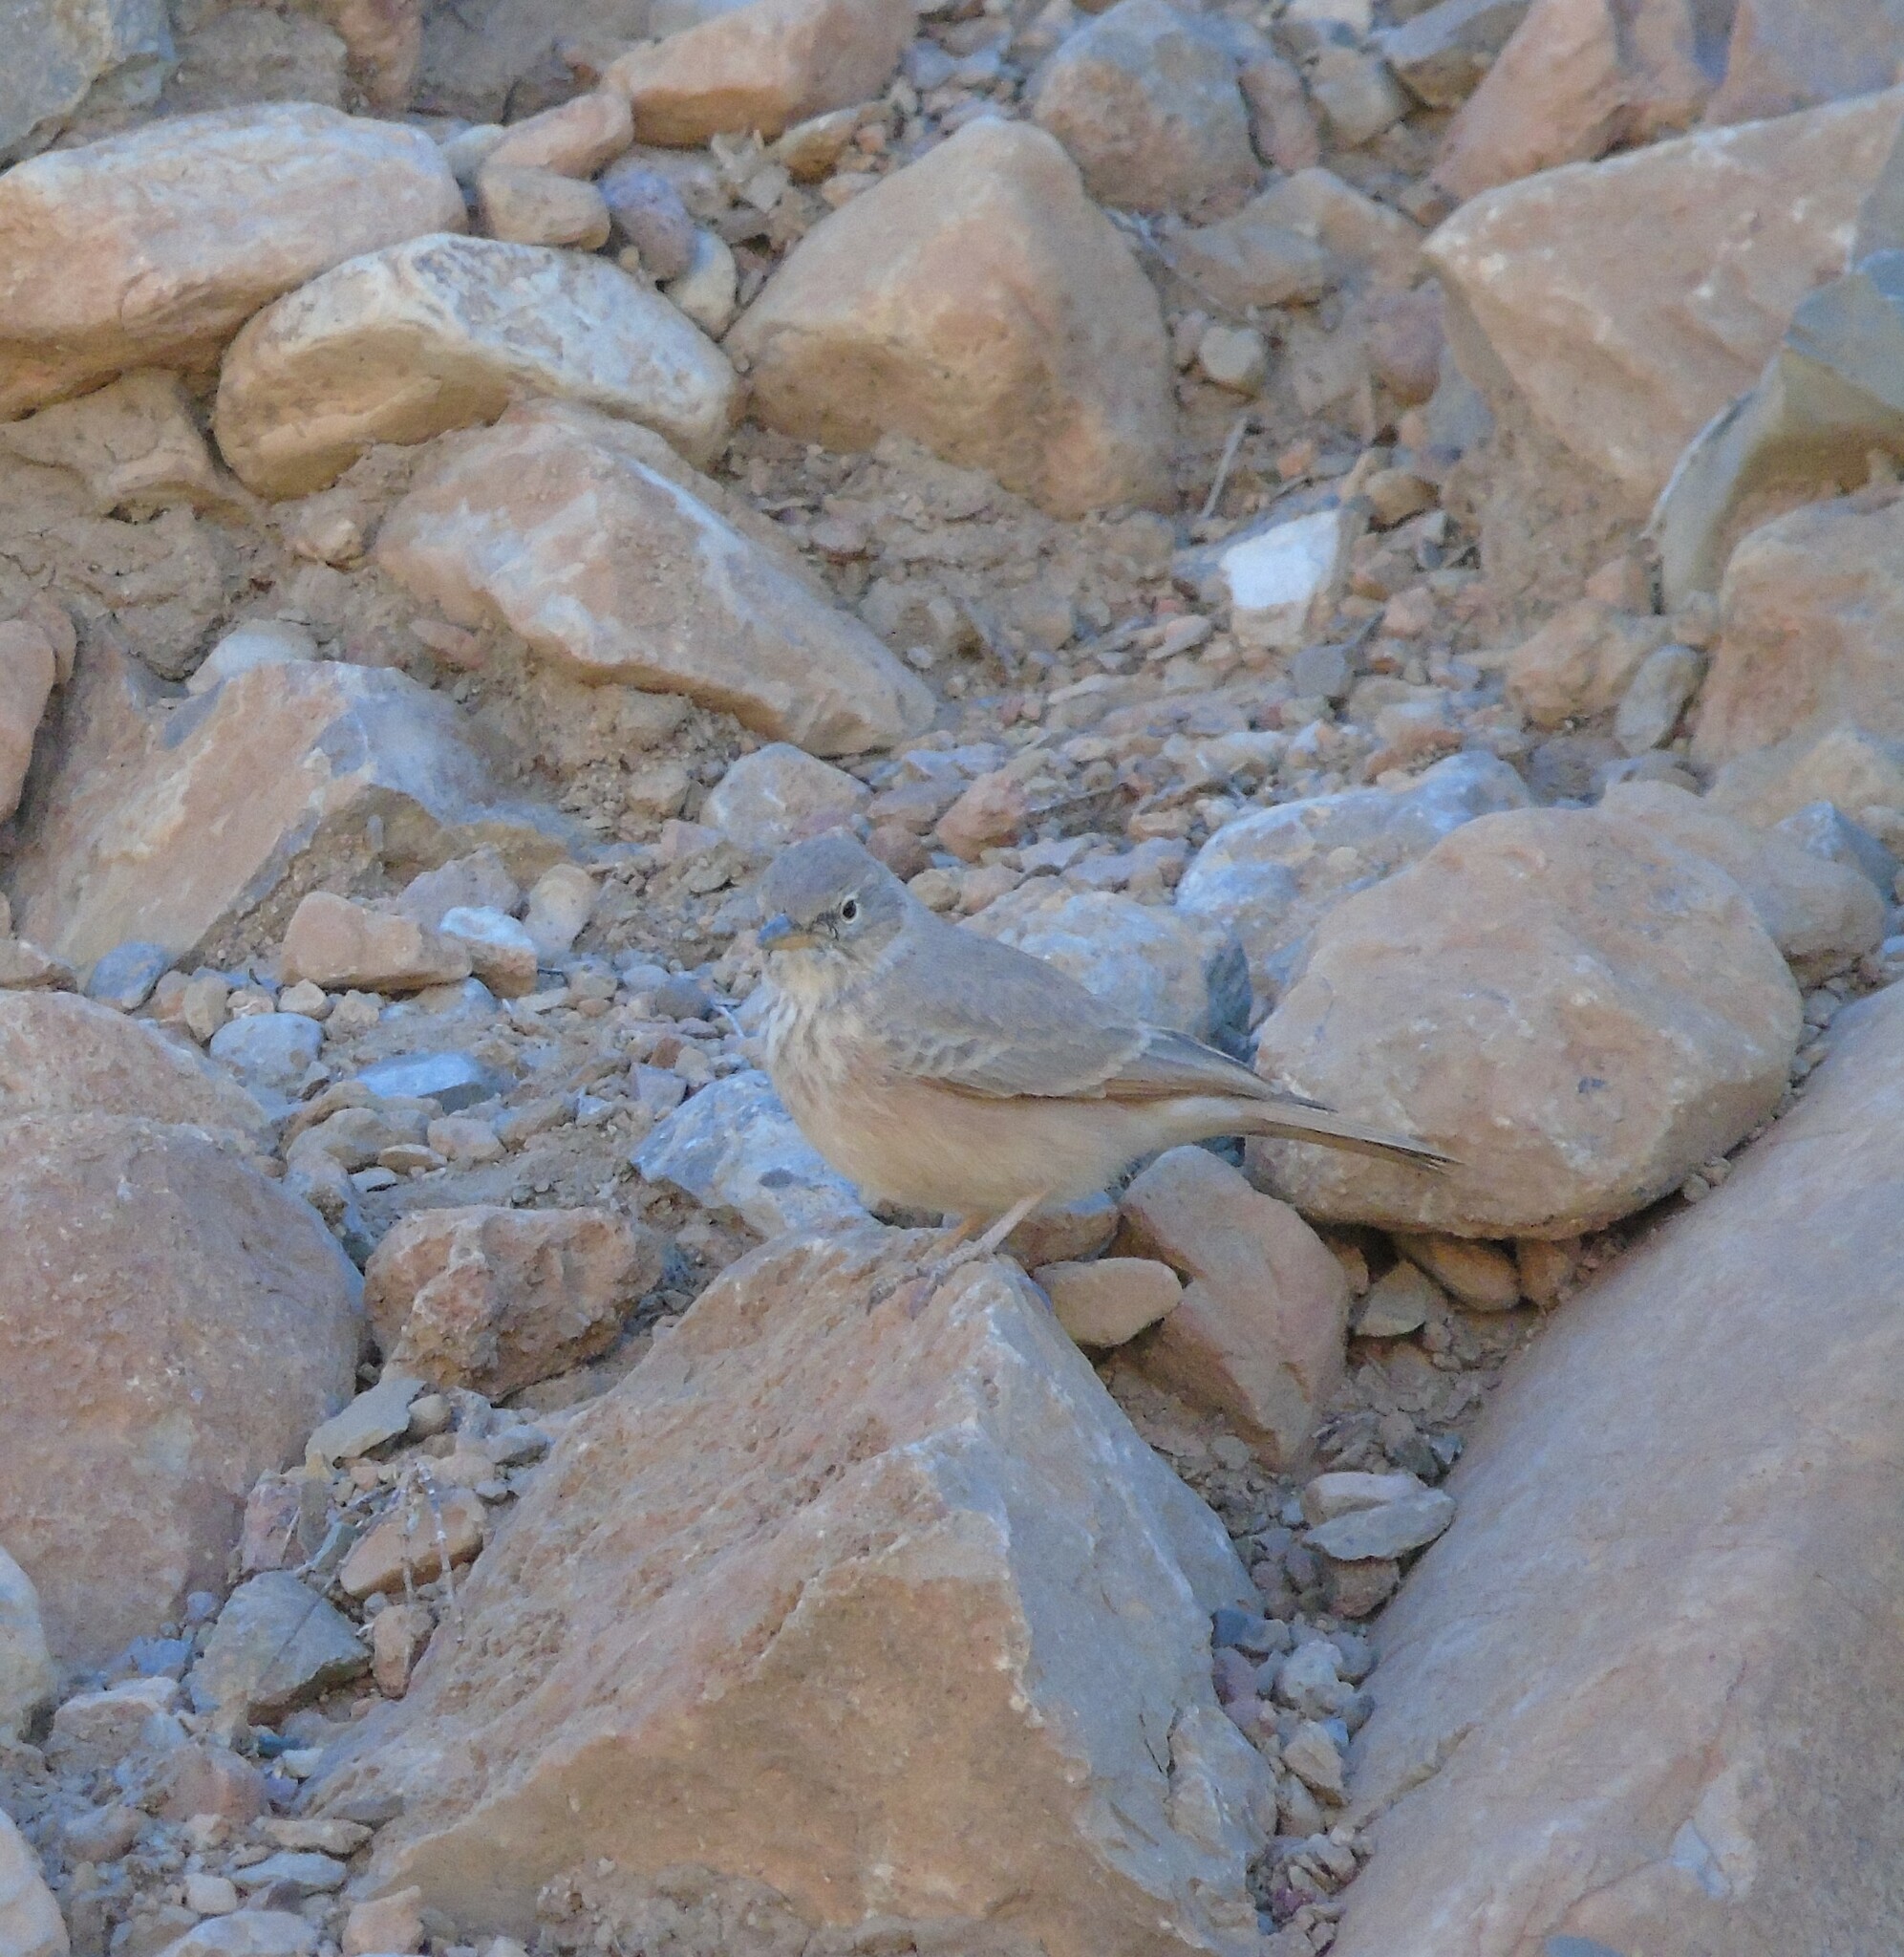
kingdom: Animalia
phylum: Chordata
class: Aves
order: Passeriformes
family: Alaudidae
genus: Ammomanes
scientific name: Ammomanes deserti
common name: Desert lark
